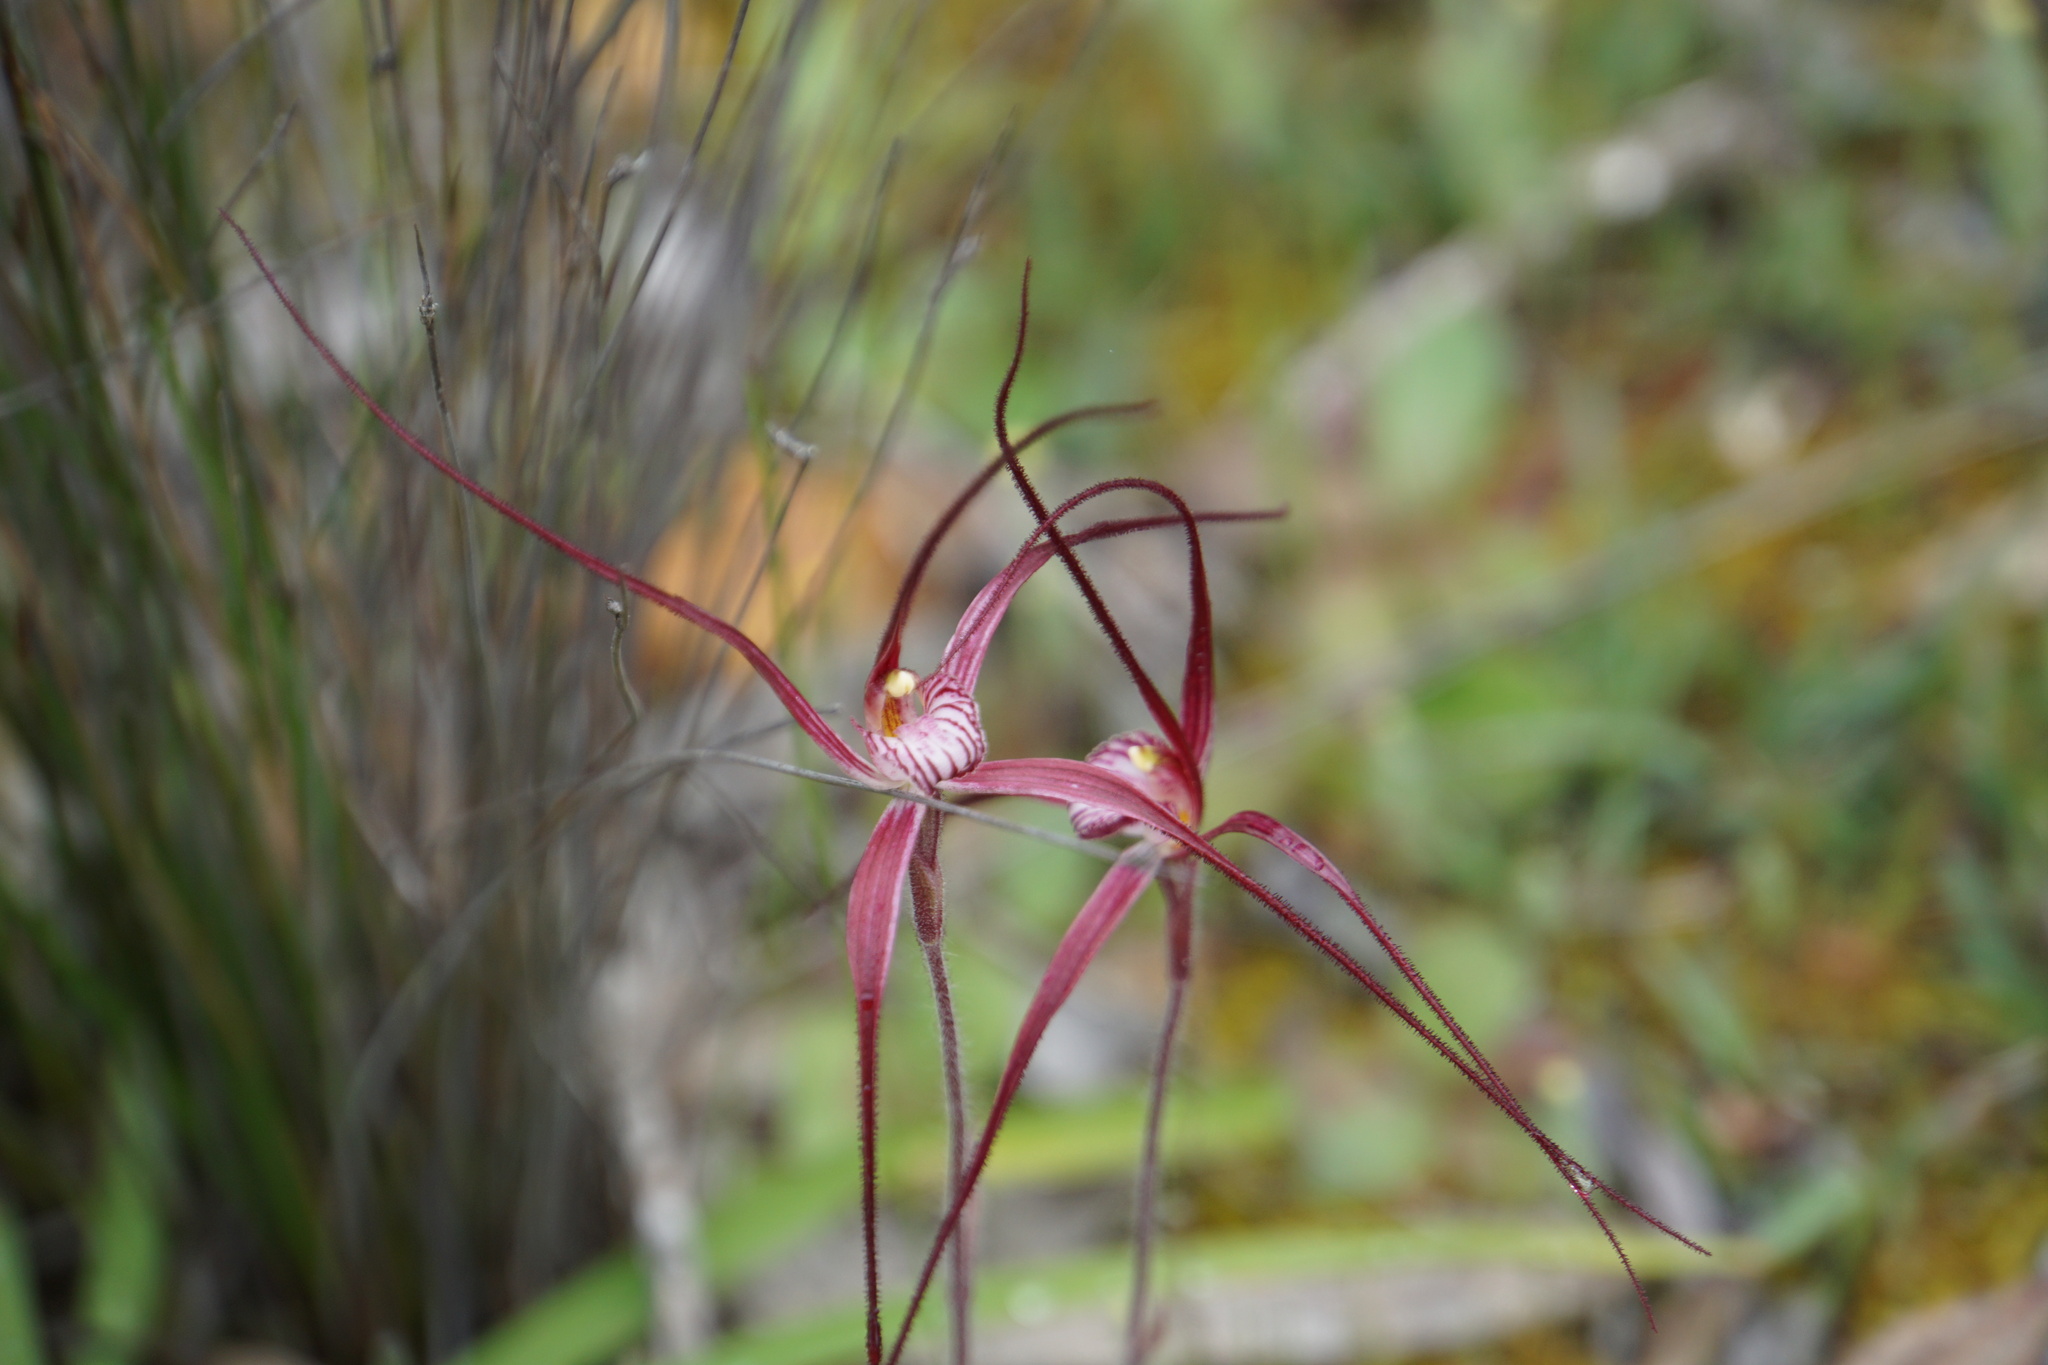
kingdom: Plantae
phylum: Tracheophyta
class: Liliopsida
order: Asparagales
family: Orchidaceae
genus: Caladenia
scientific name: Caladenia footeana
